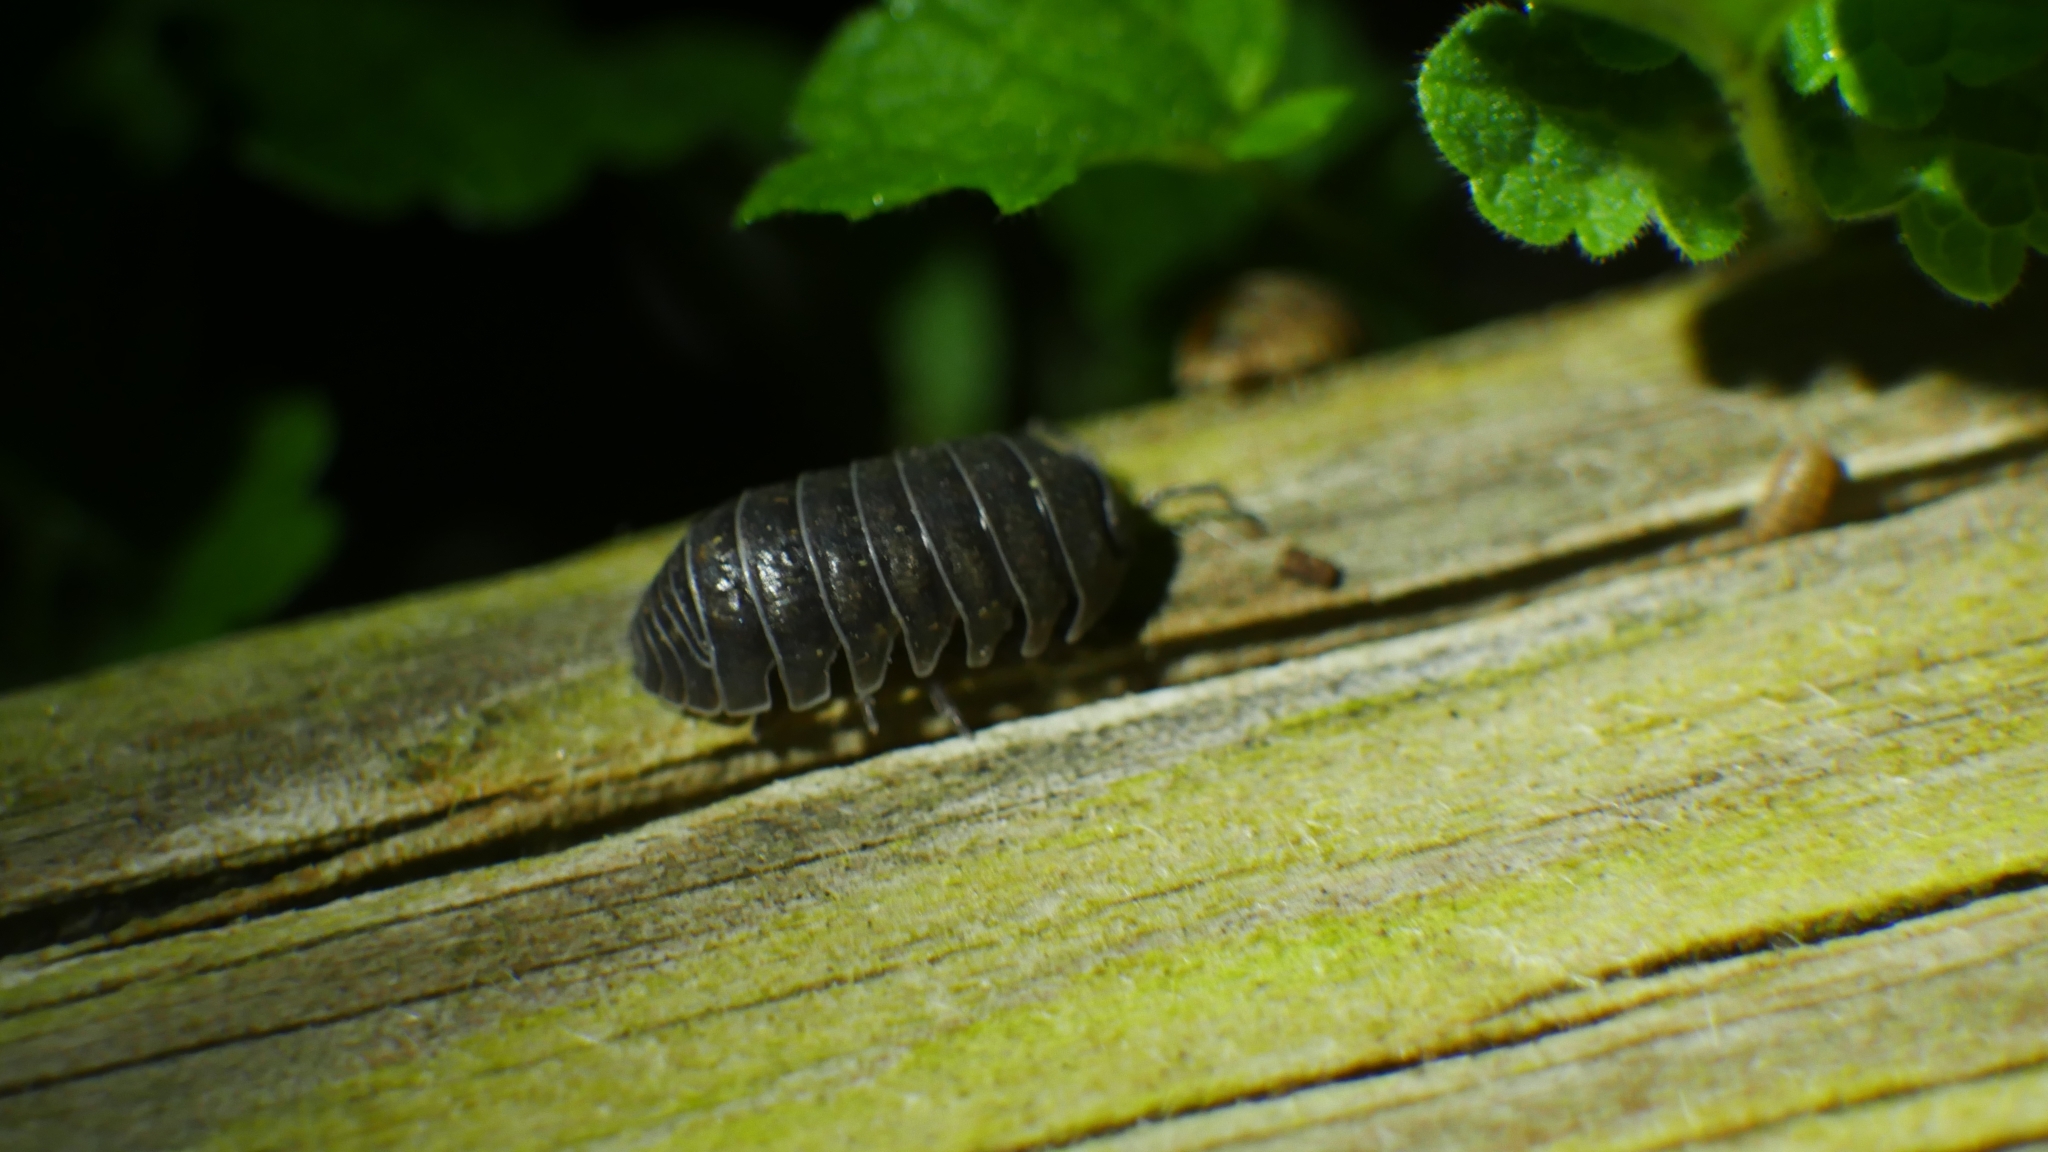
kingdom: Animalia
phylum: Arthropoda
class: Malacostraca
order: Isopoda
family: Armadillidiidae
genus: Armadillidium
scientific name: Armadillidium vulgare
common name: Common pill woodlouse
